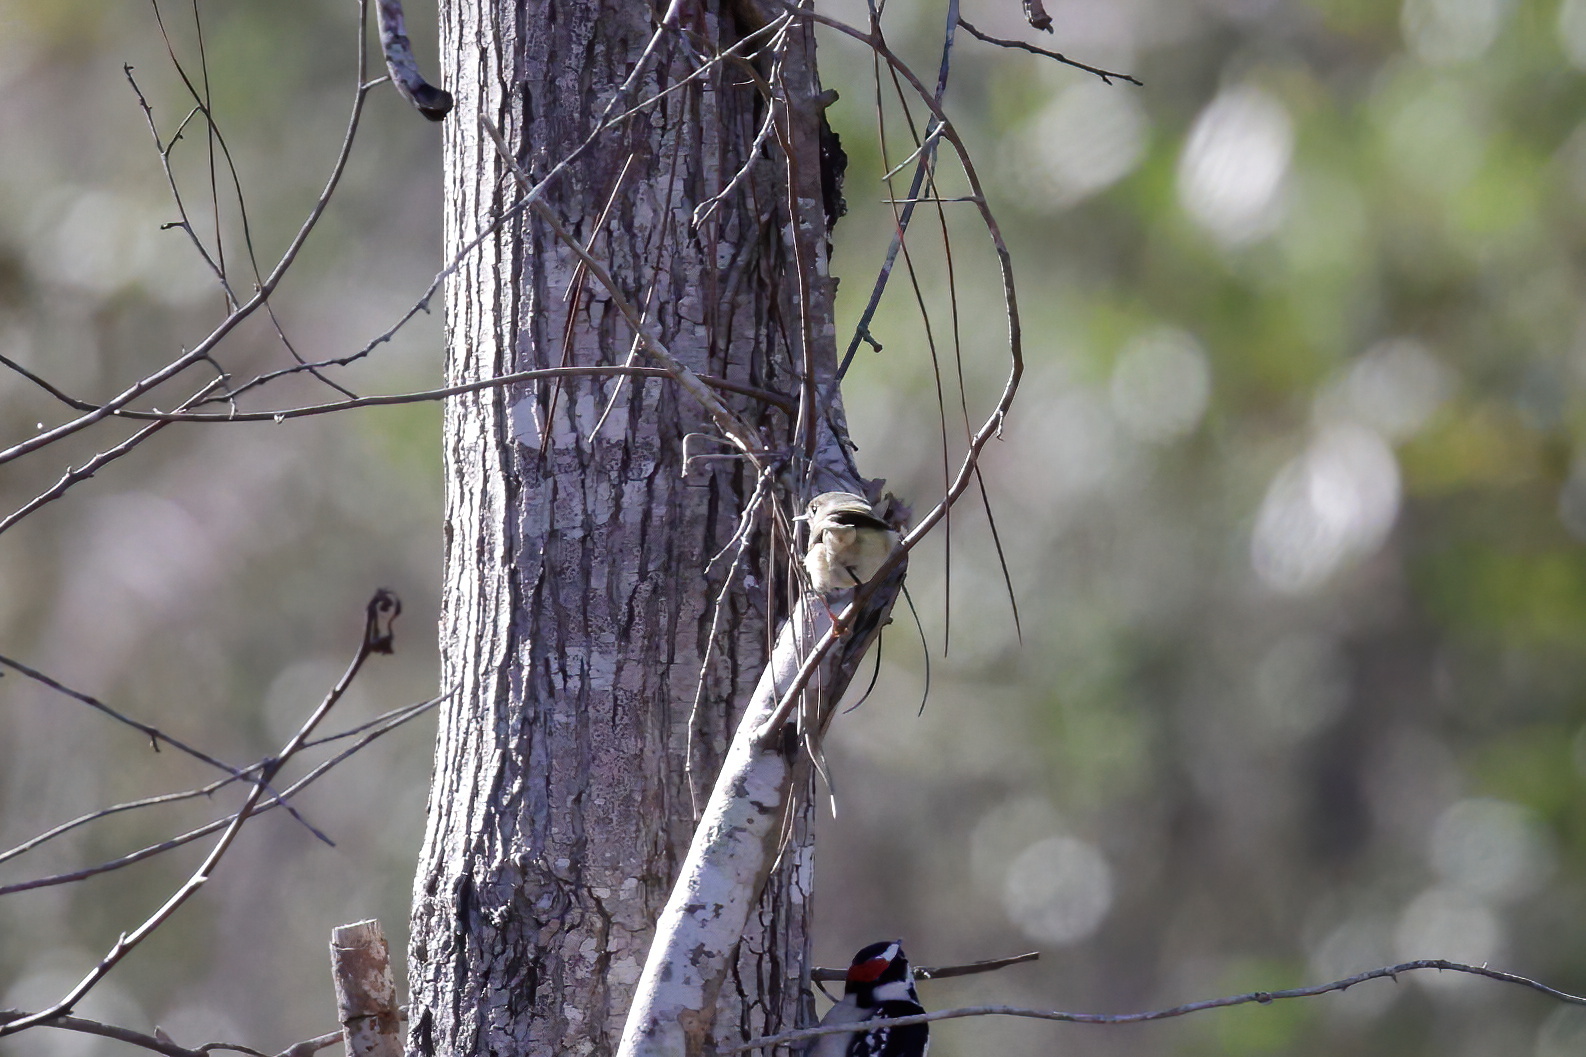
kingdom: Animalia
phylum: Chordata
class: Aves
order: Passeriformes
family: Regulidae
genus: Regulus
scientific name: Regulus calendula
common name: Ruby-crowned kinglet
